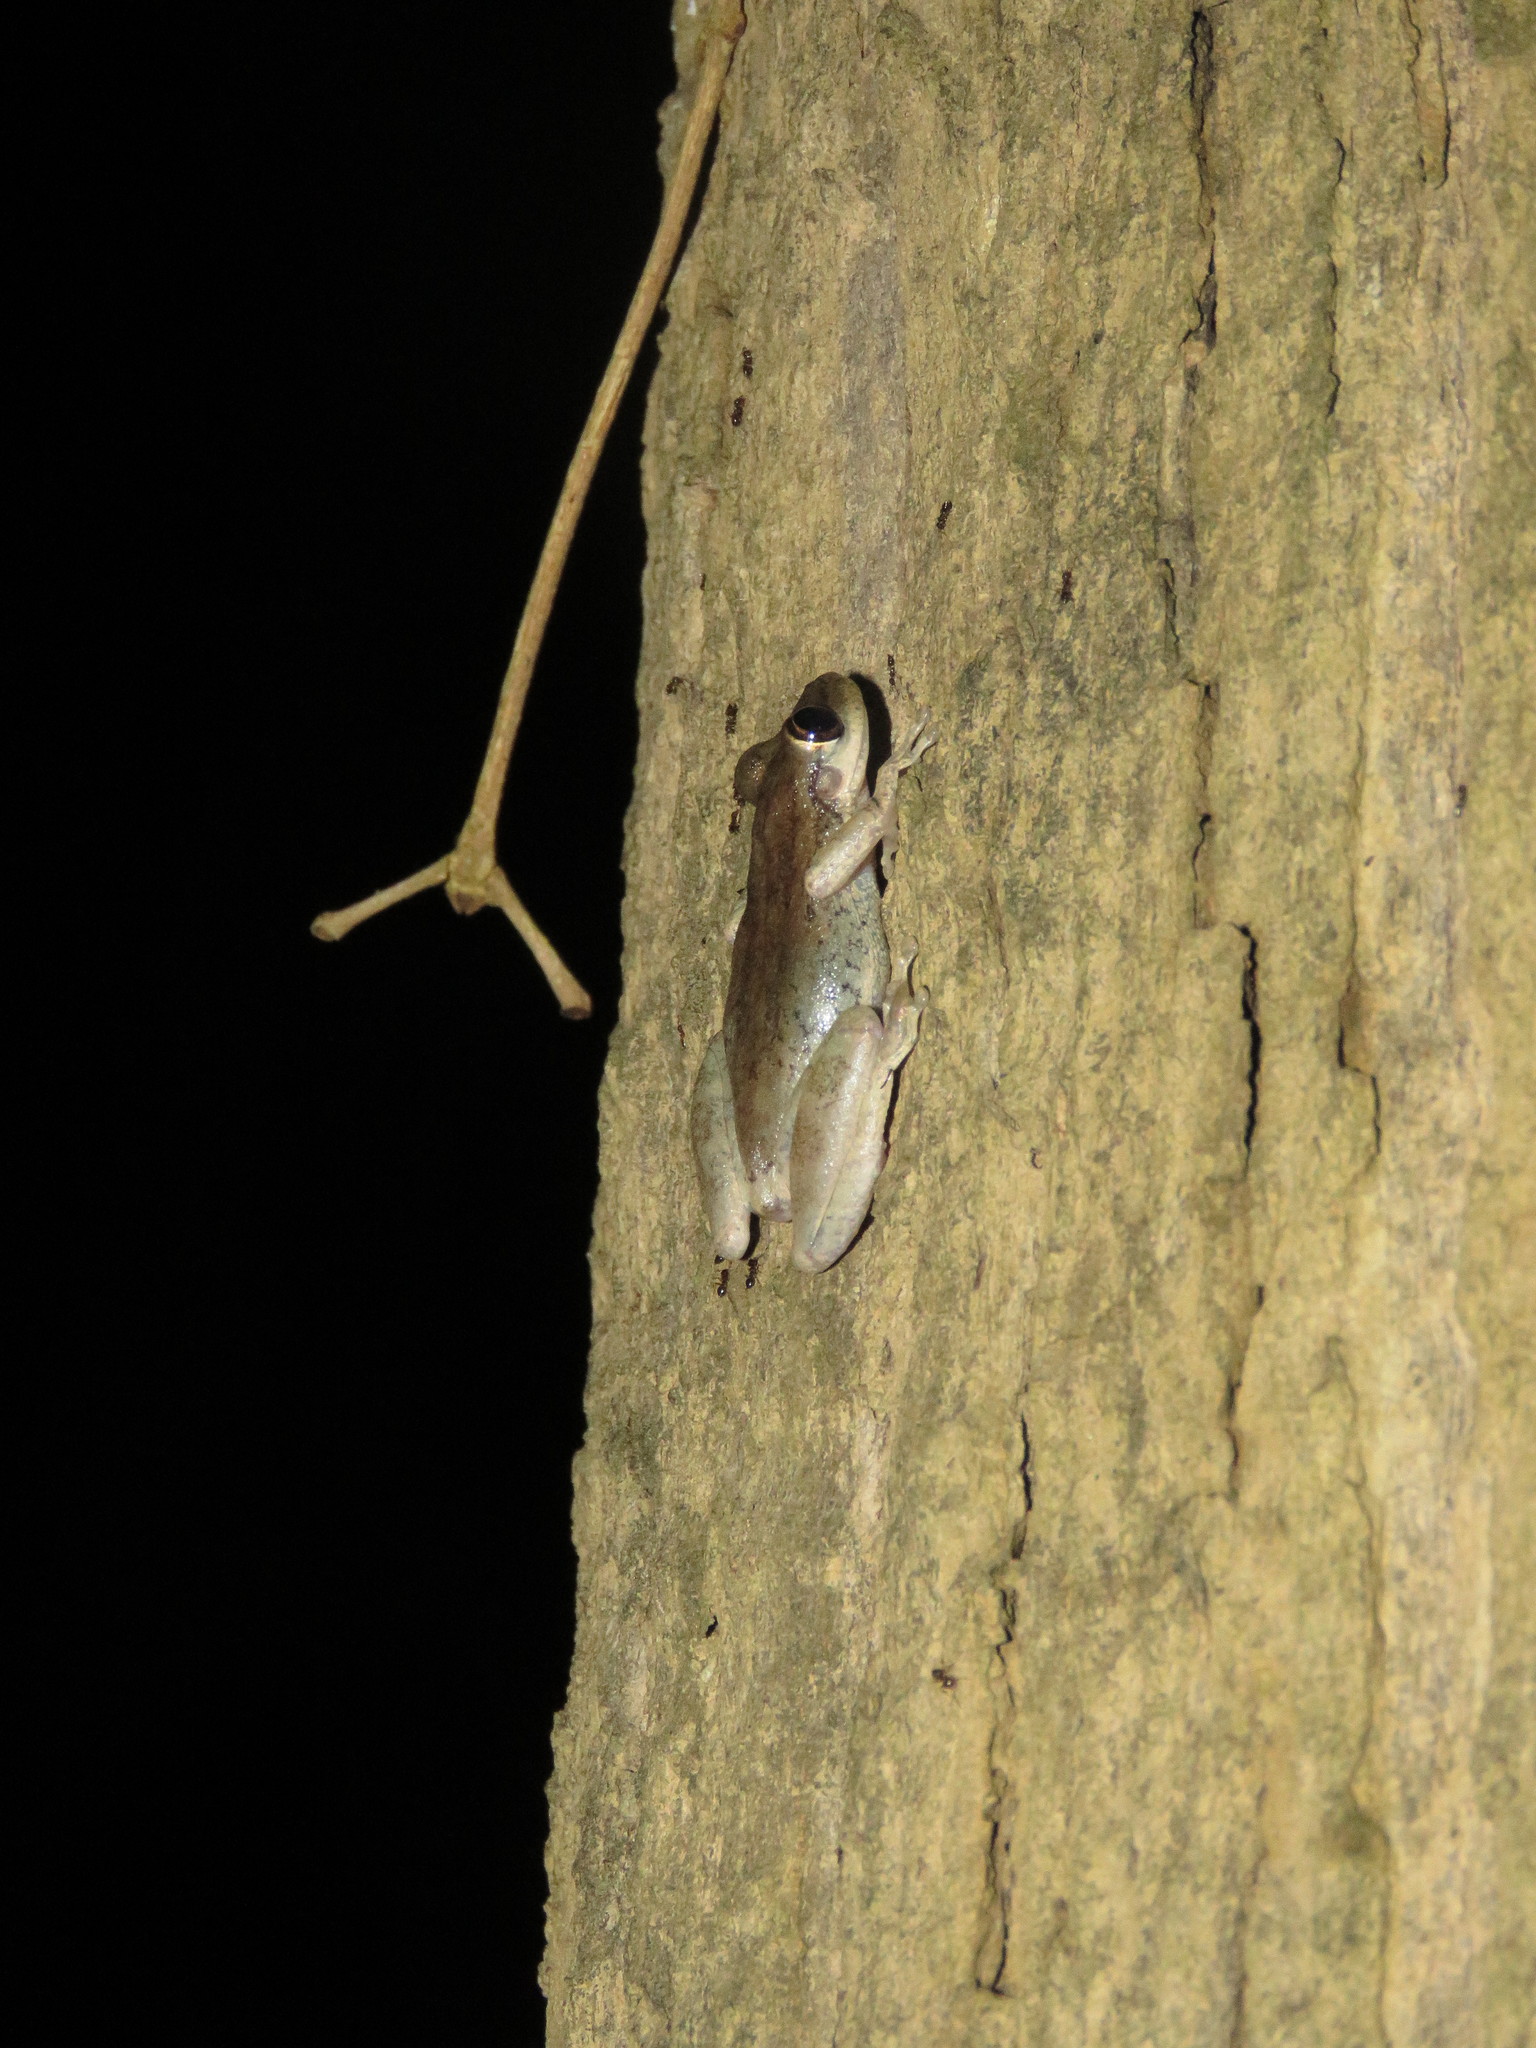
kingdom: Animalia
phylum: Chordata
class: Amphibia
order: Anura
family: Hylidae
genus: Scinax
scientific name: Scinax ruber
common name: Red snouted treefrog
